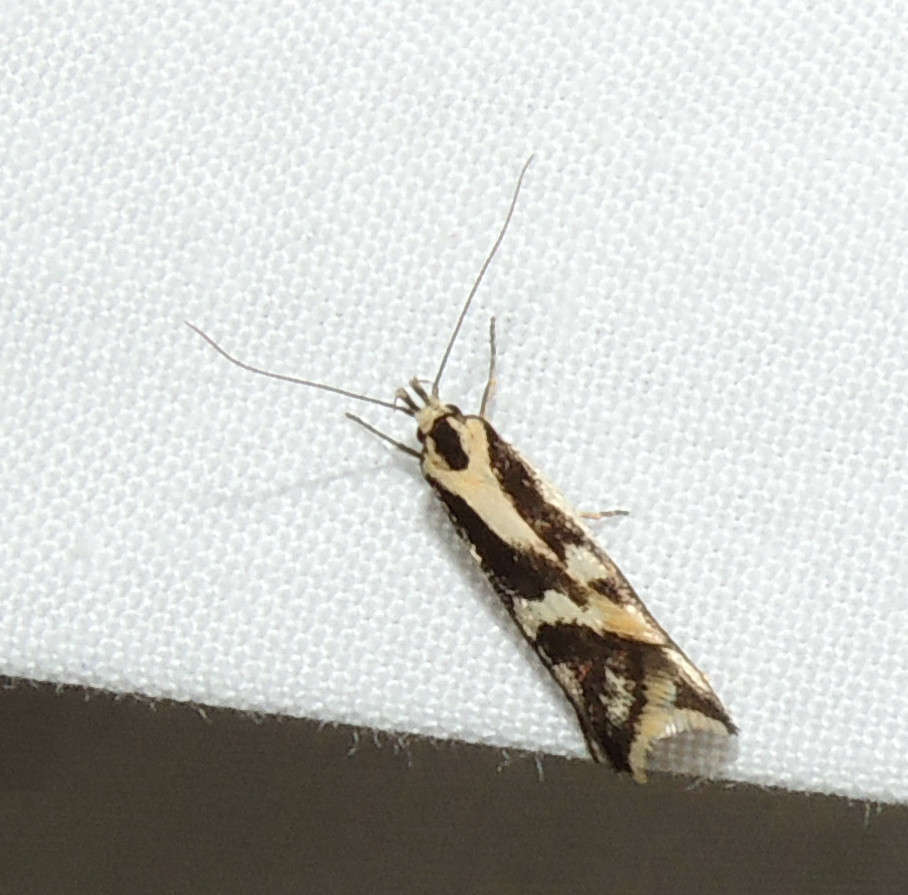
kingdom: Animalia
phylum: Arthropoda
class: Insecta
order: Lepidoptera
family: Oecophoridae
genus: Epithymema
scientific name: Epithymema incomposita
